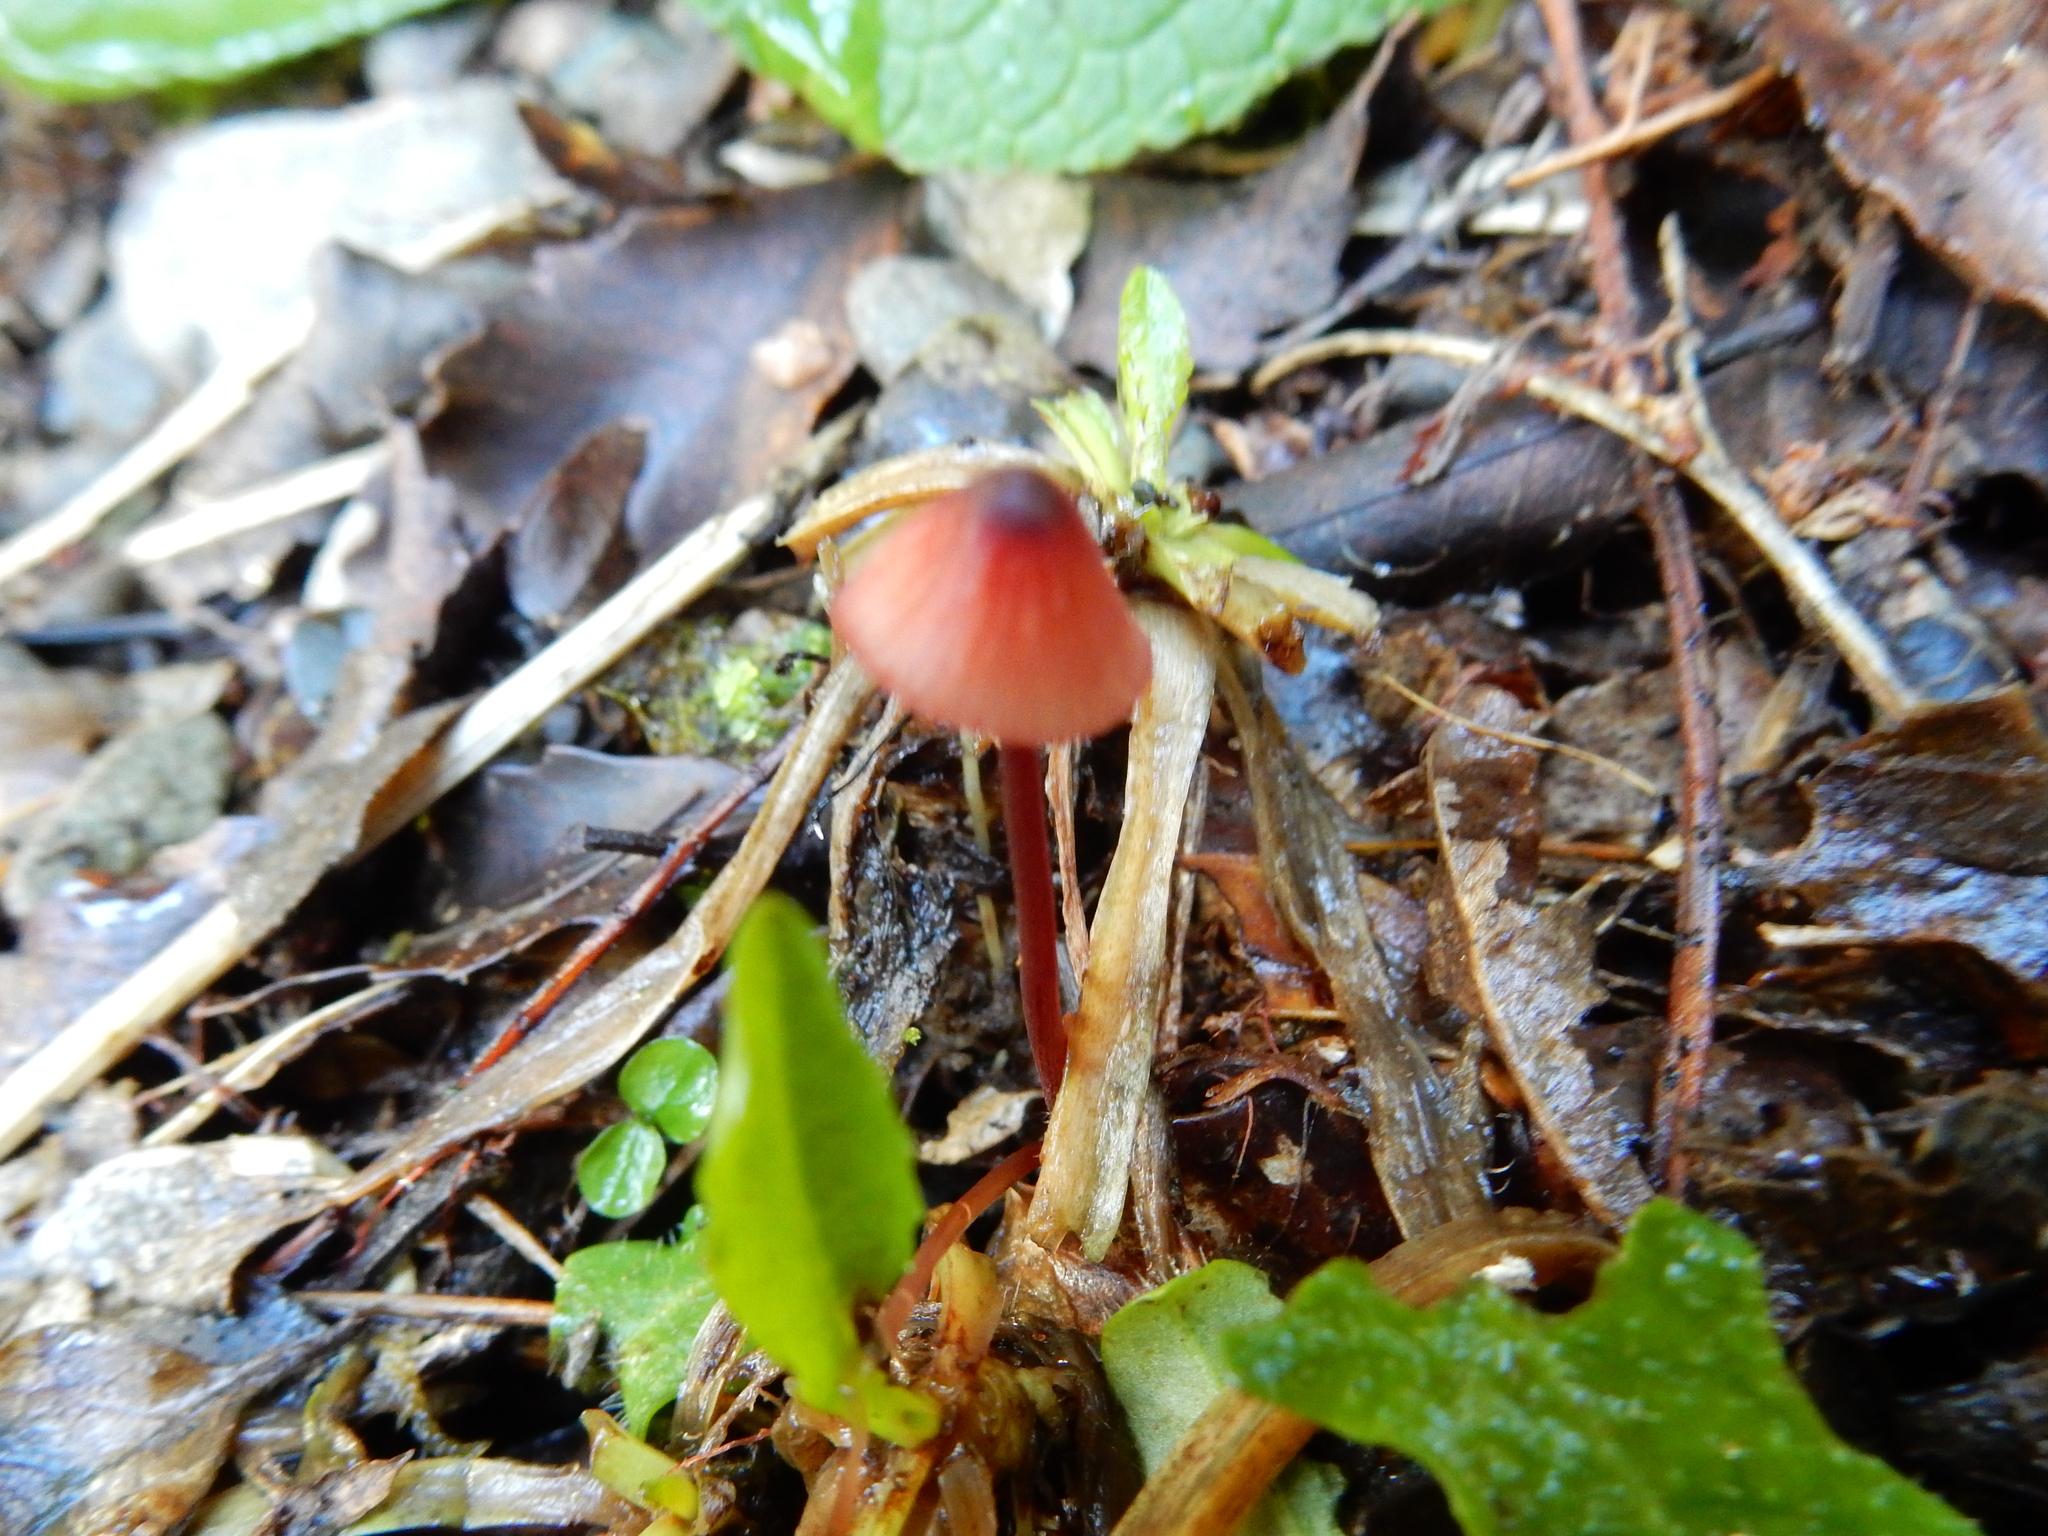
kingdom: Fungi
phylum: Basidiomycota
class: Agaricomycetes
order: Agaricales
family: Mycenaceae
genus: Mycena
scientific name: Mycena ura
